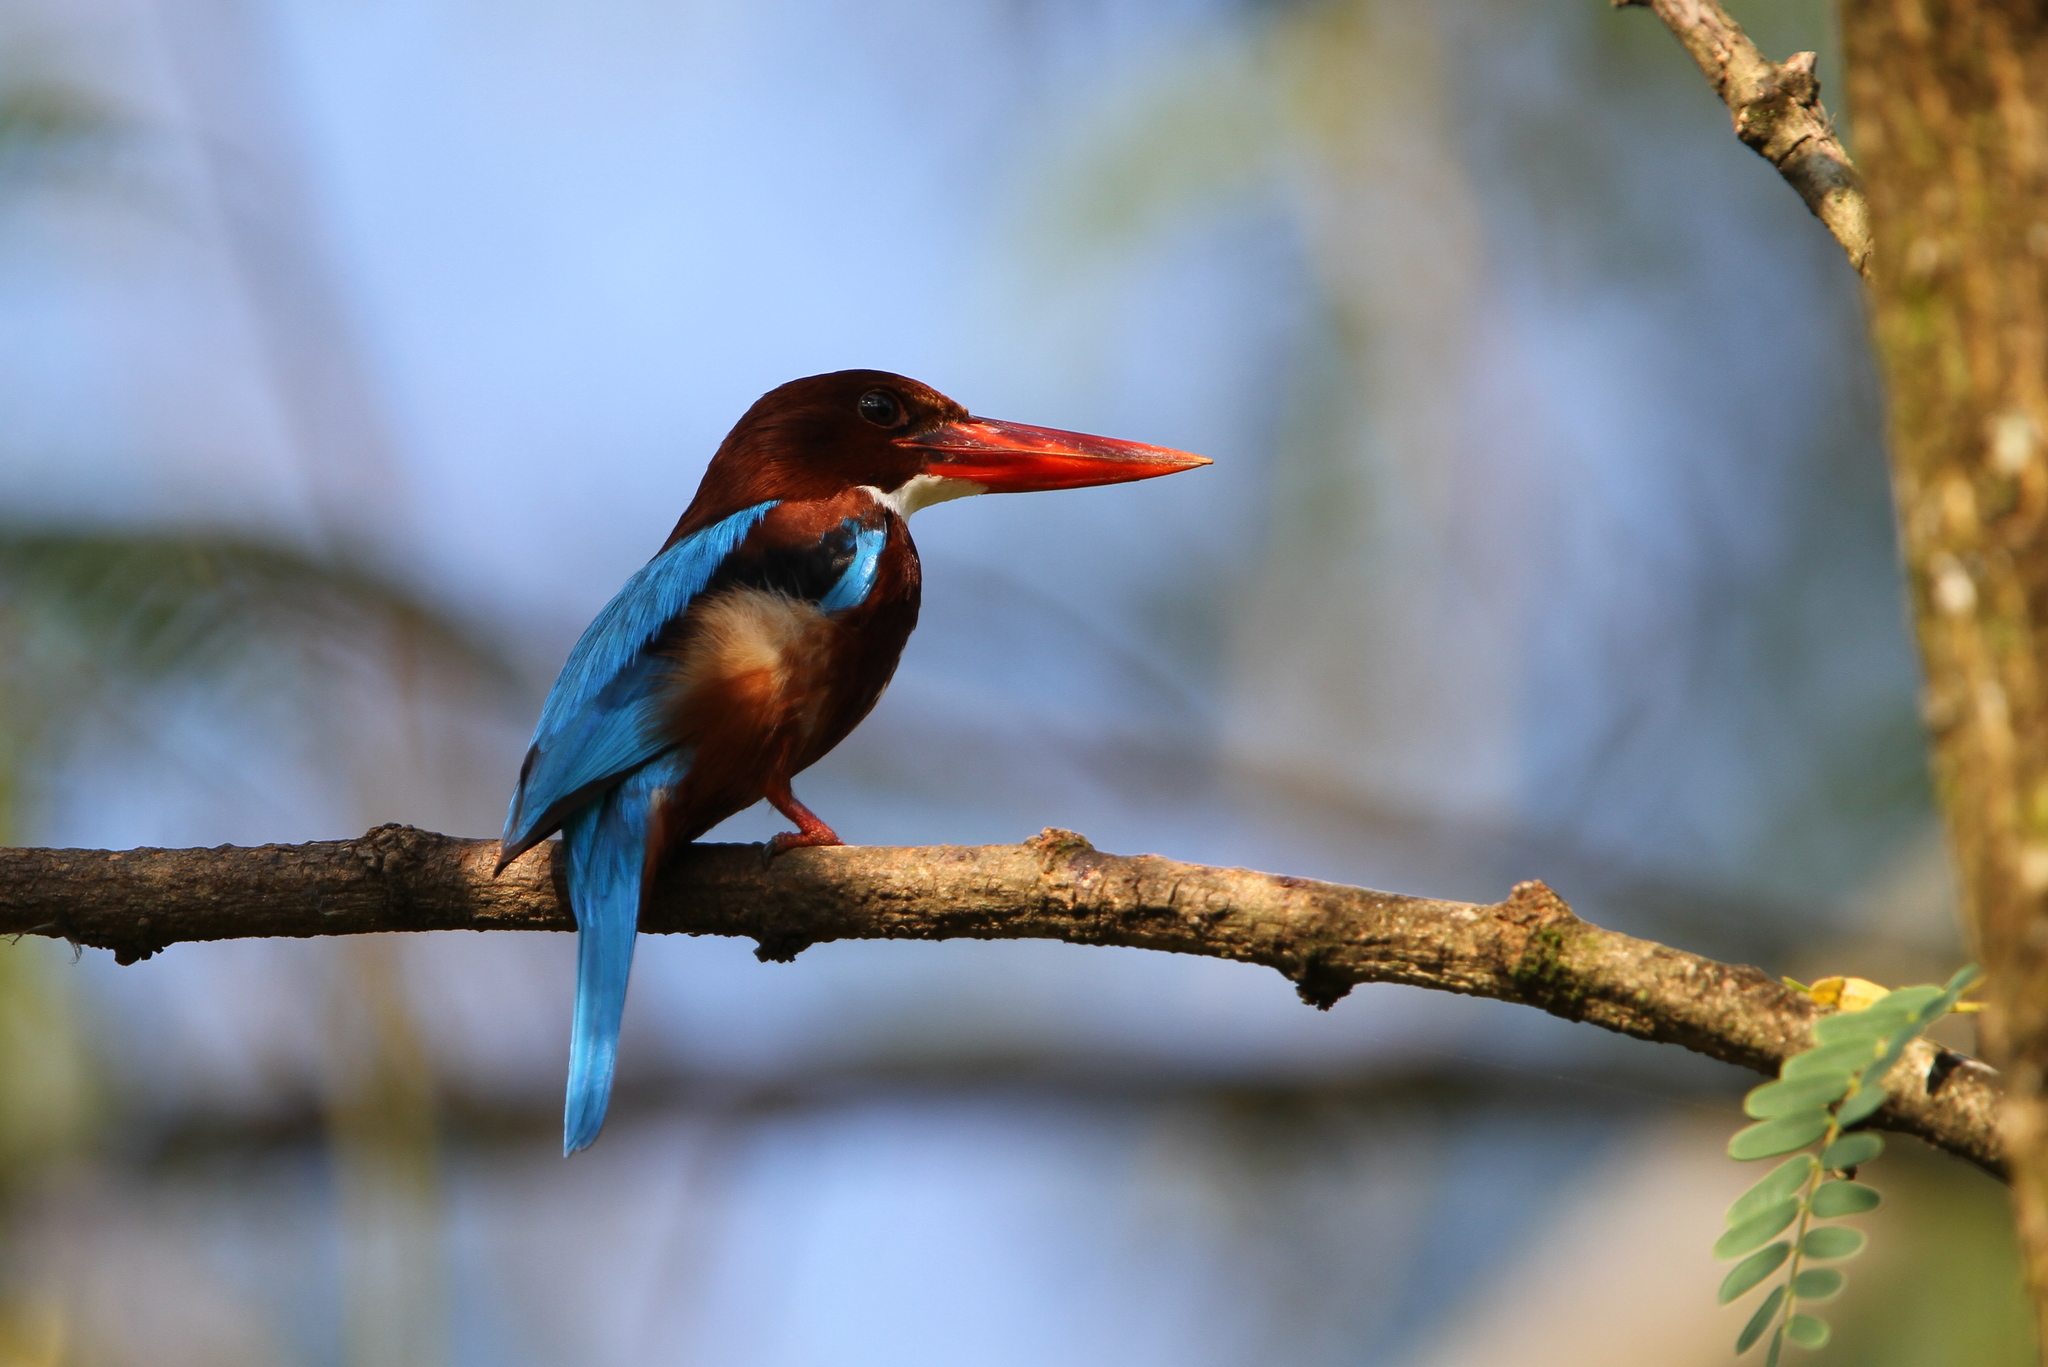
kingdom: Animalia
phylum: Chordata
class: Aves
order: Coraciiformes
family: Alcedinidae
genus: Halcyon
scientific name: Halcyon smyrnensis
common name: White-throated kingfisher
